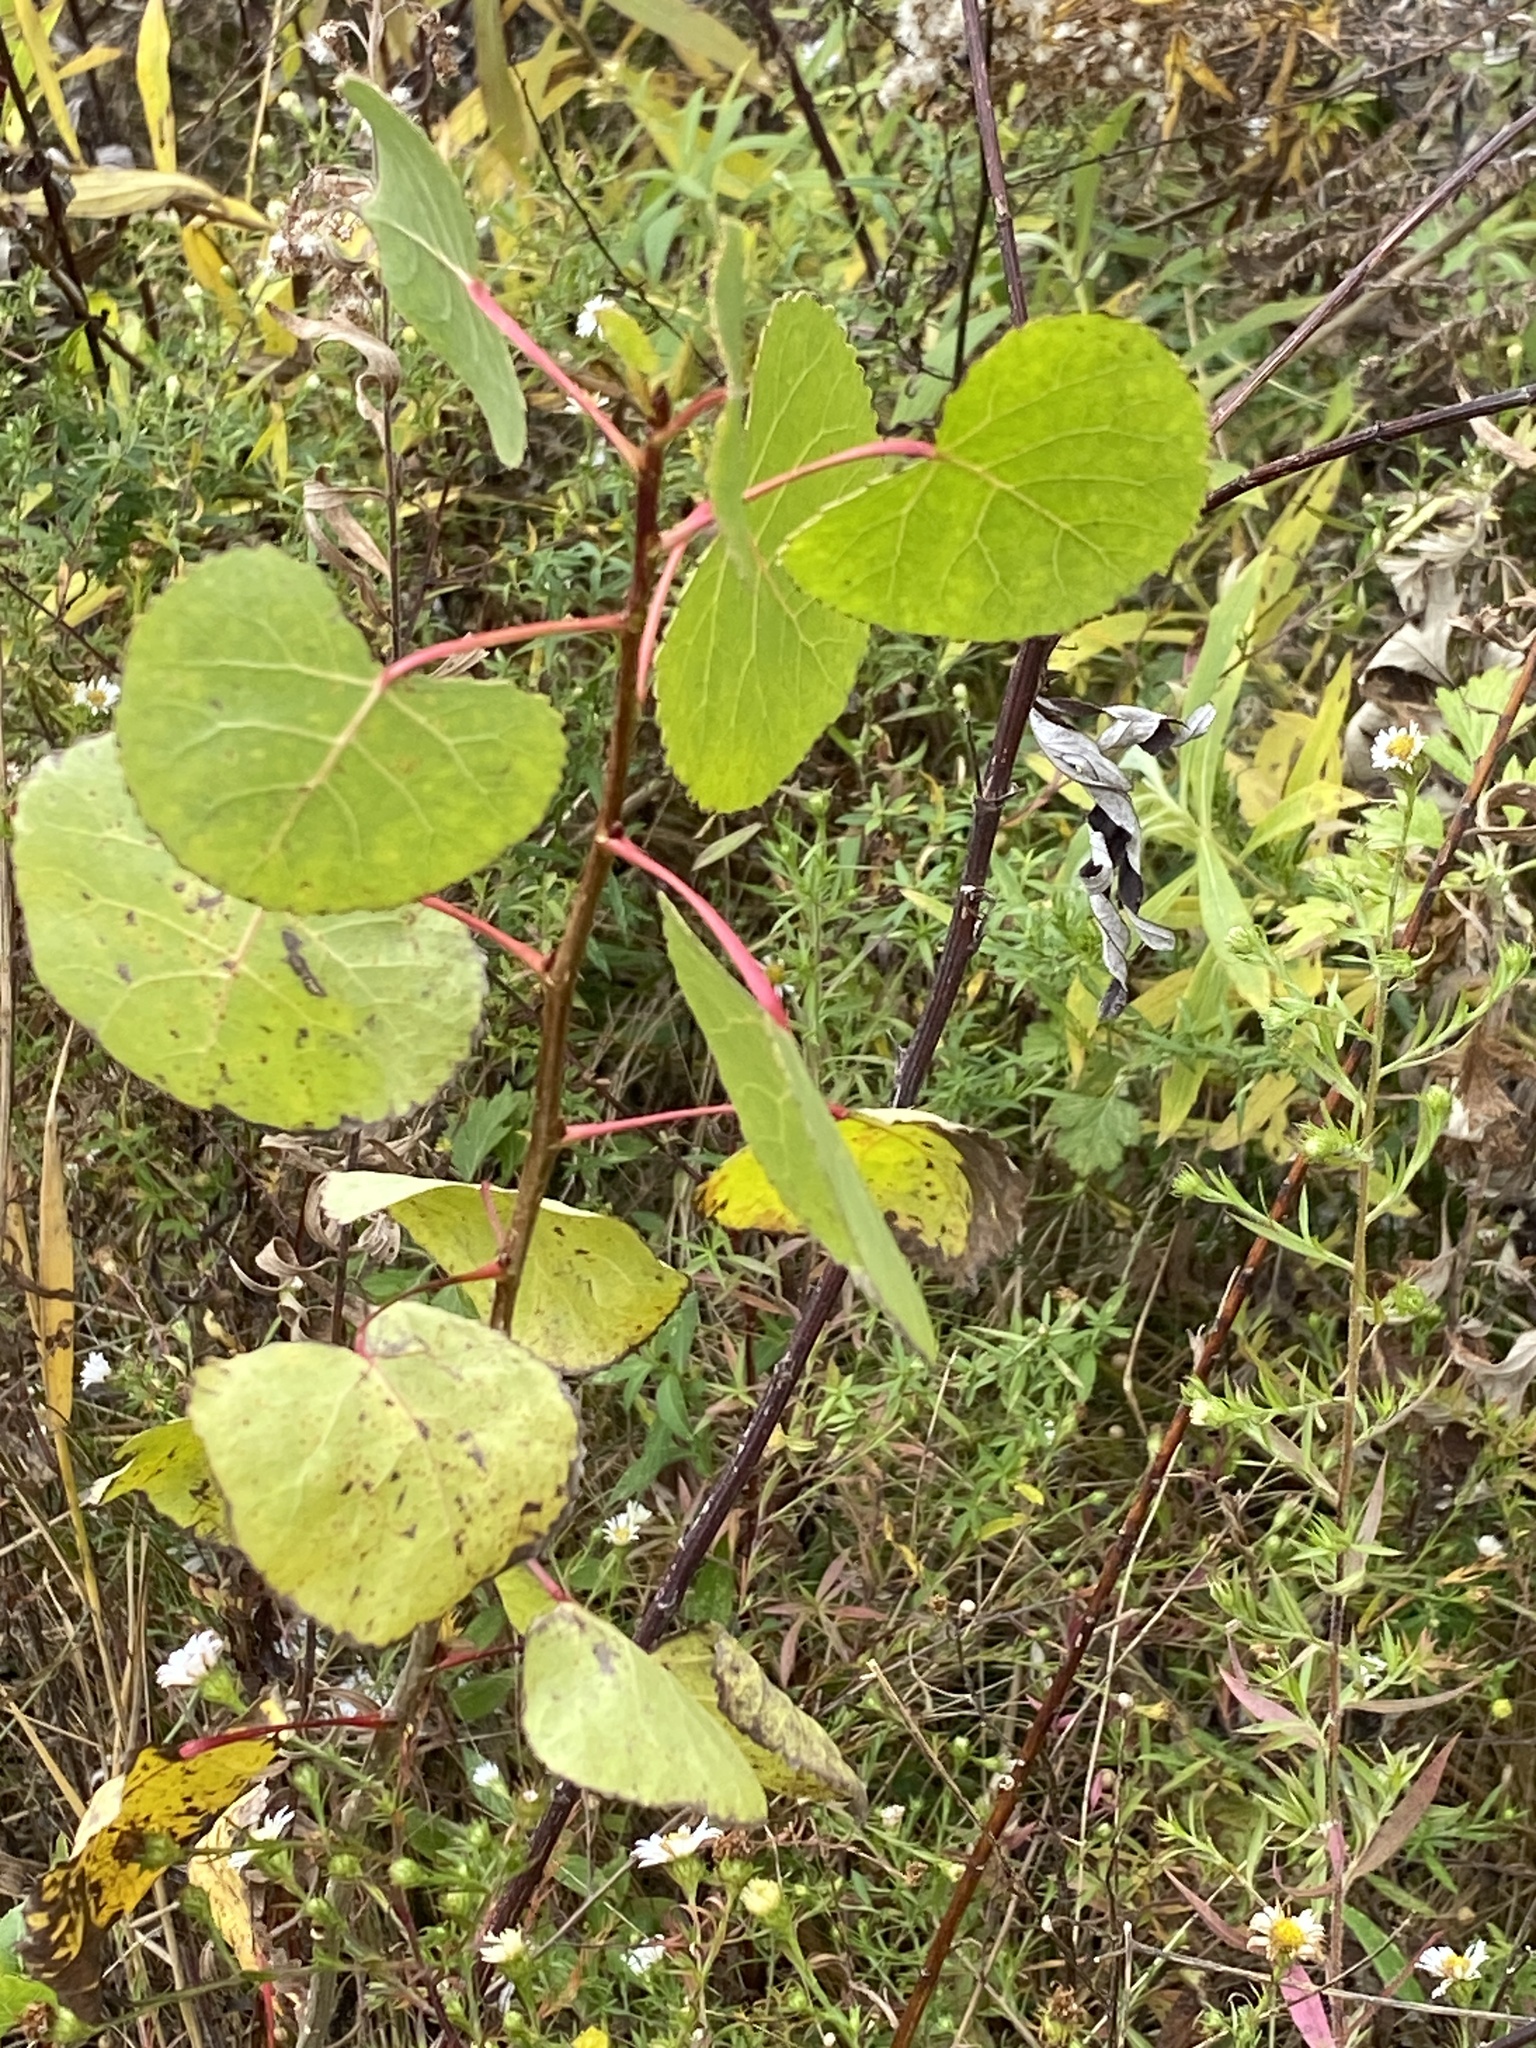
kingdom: Plantae
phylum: Tracheophyta
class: Magnoliopsida
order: Malpighiales
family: Salicaceae
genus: Populus
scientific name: Populus deltoides
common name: Eastern cottonwood
